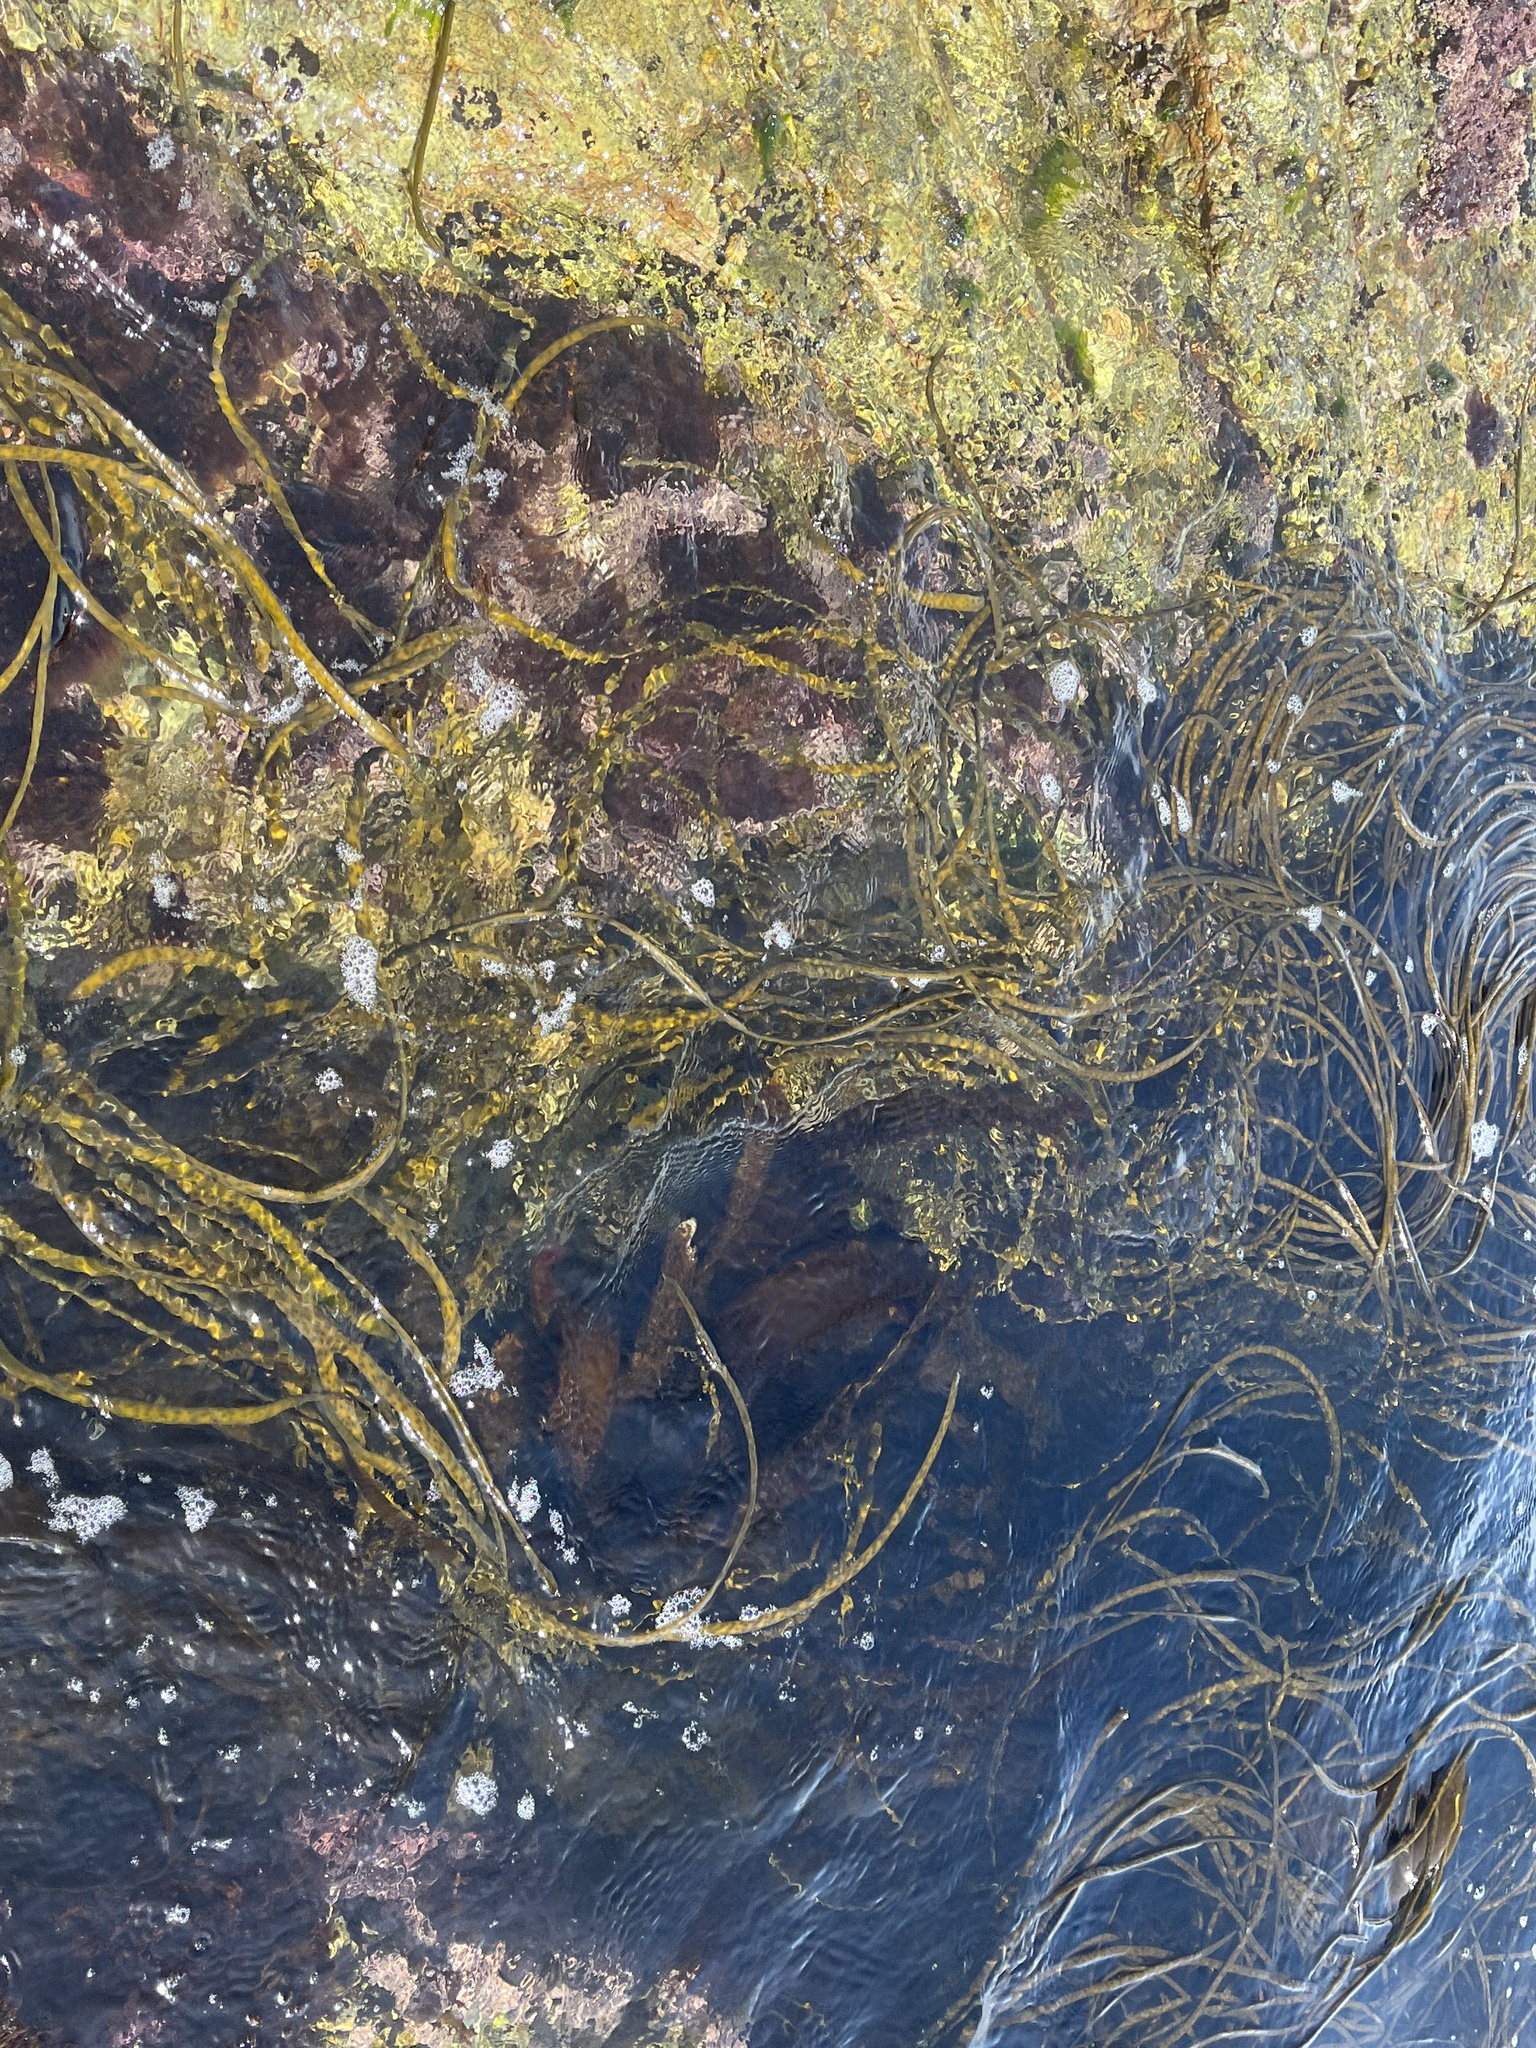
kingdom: Chromista
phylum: Ochrophyta
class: Phaeophyceae
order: Fucales
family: Himanthaliaceae
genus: Himanthalia
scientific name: Himanthalia elongata
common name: Sea-thong
